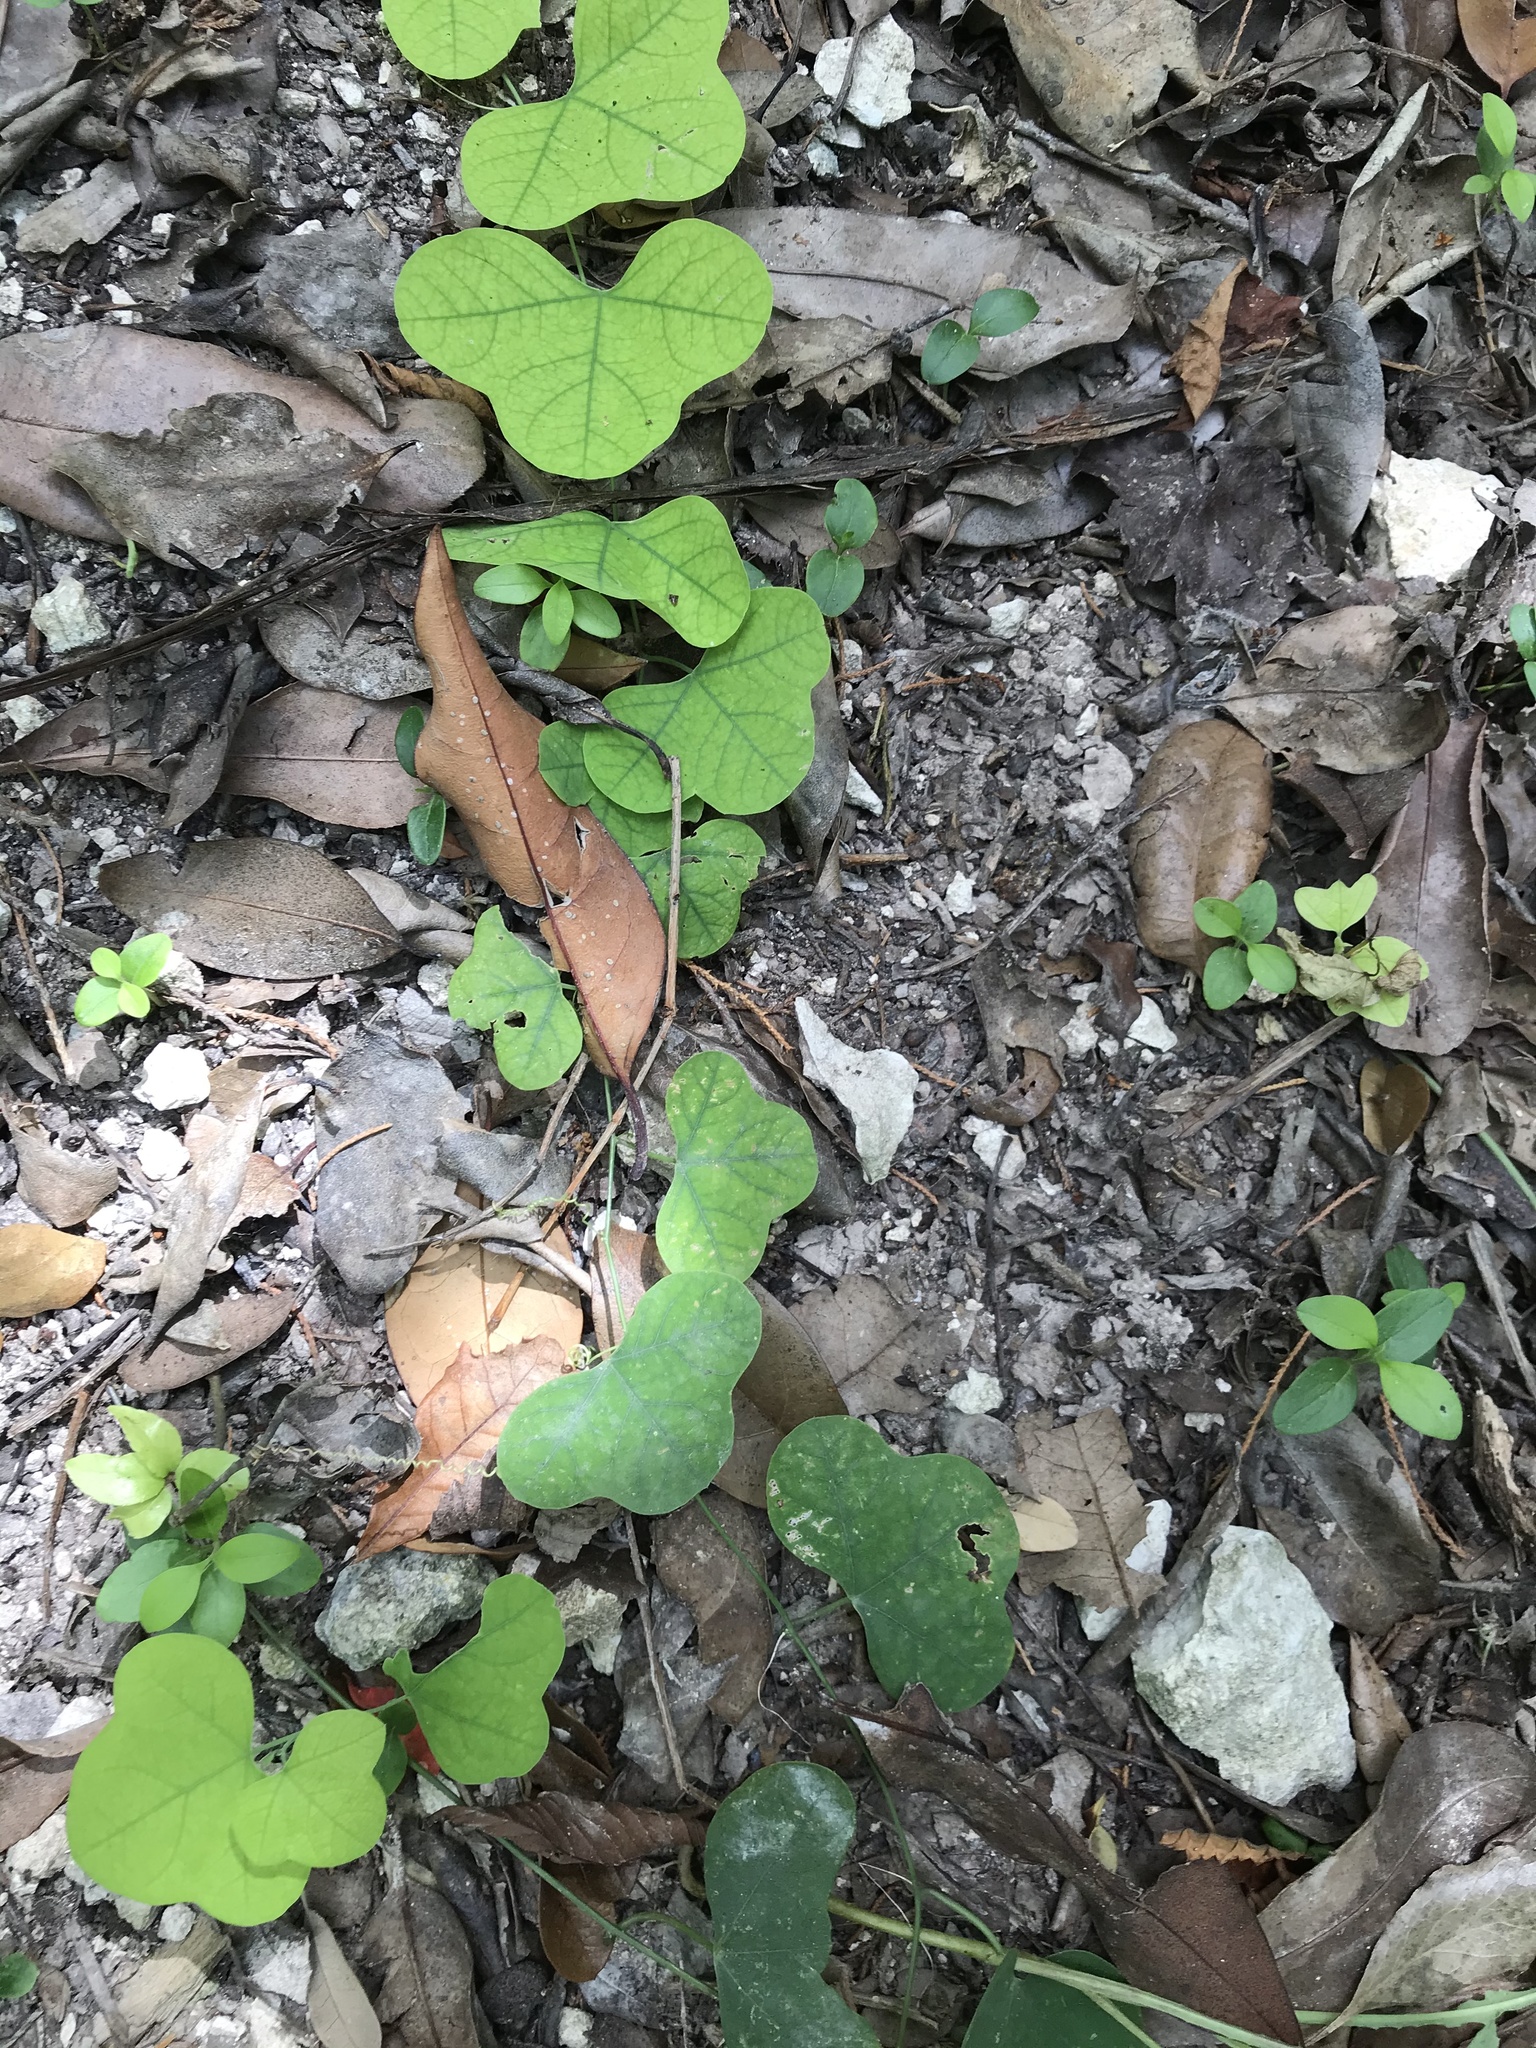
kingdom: Plantae
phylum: Tracheophyta
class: Magnoliopsida
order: Malpighiales
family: Passifloraceae
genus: Passiflora
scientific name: Passiflora lutea
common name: Yellow passionflower
